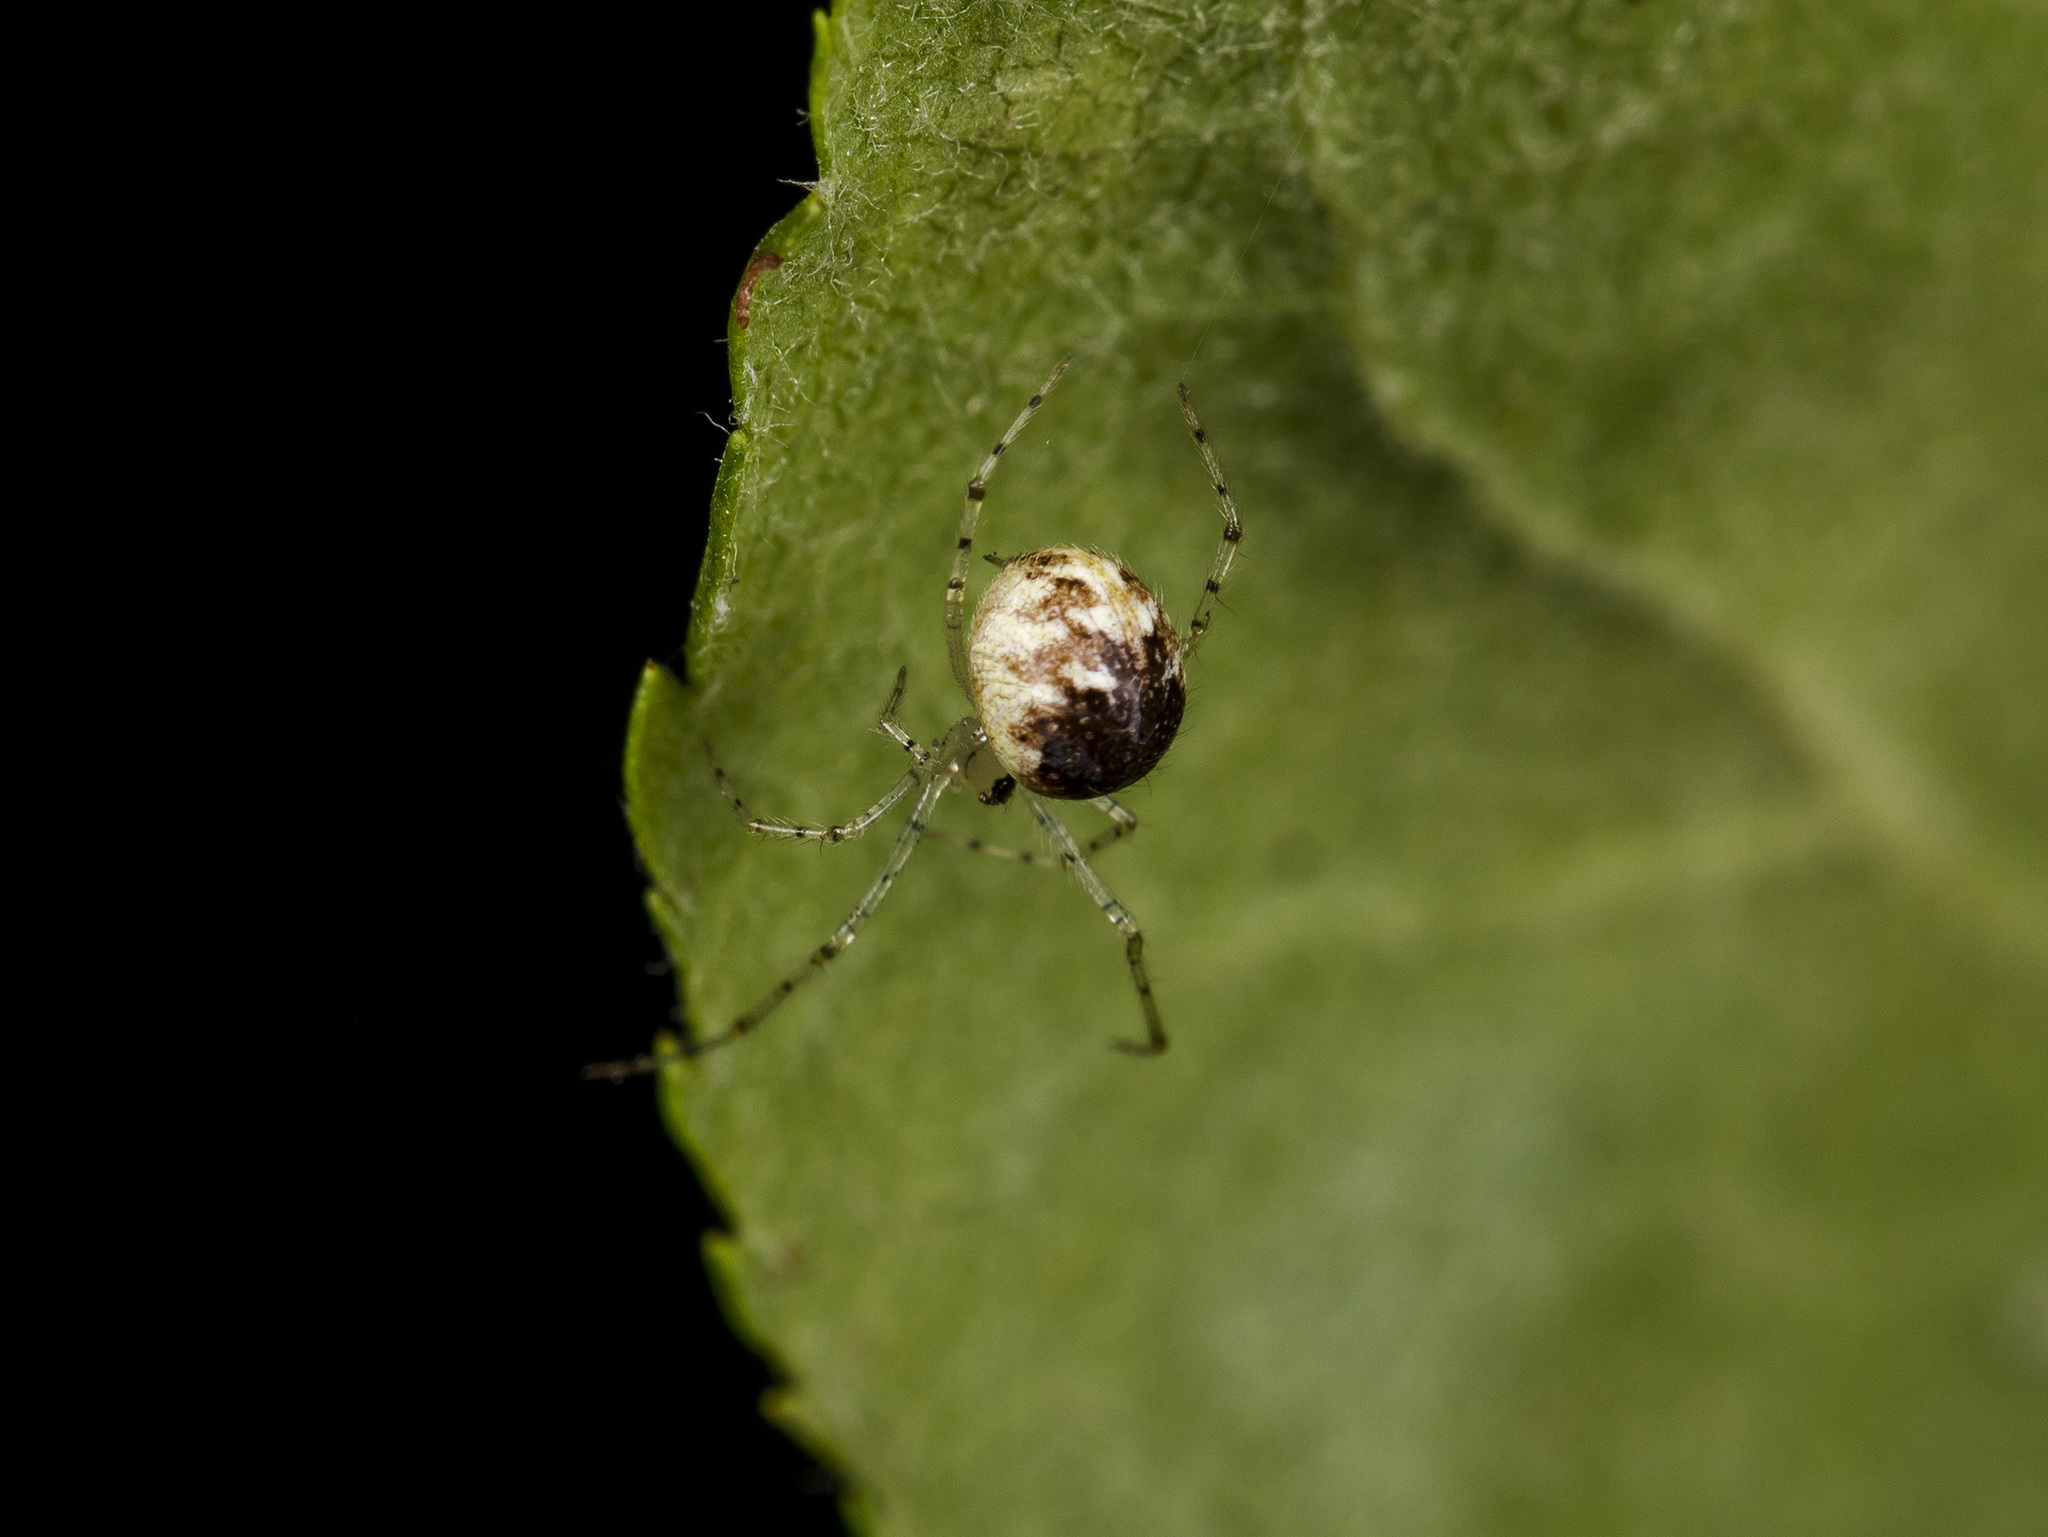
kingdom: Animalia
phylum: Arthropoda
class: Arachnida
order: Araneae
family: Theridiidae
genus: Platnickina
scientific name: Platnickina tincta
